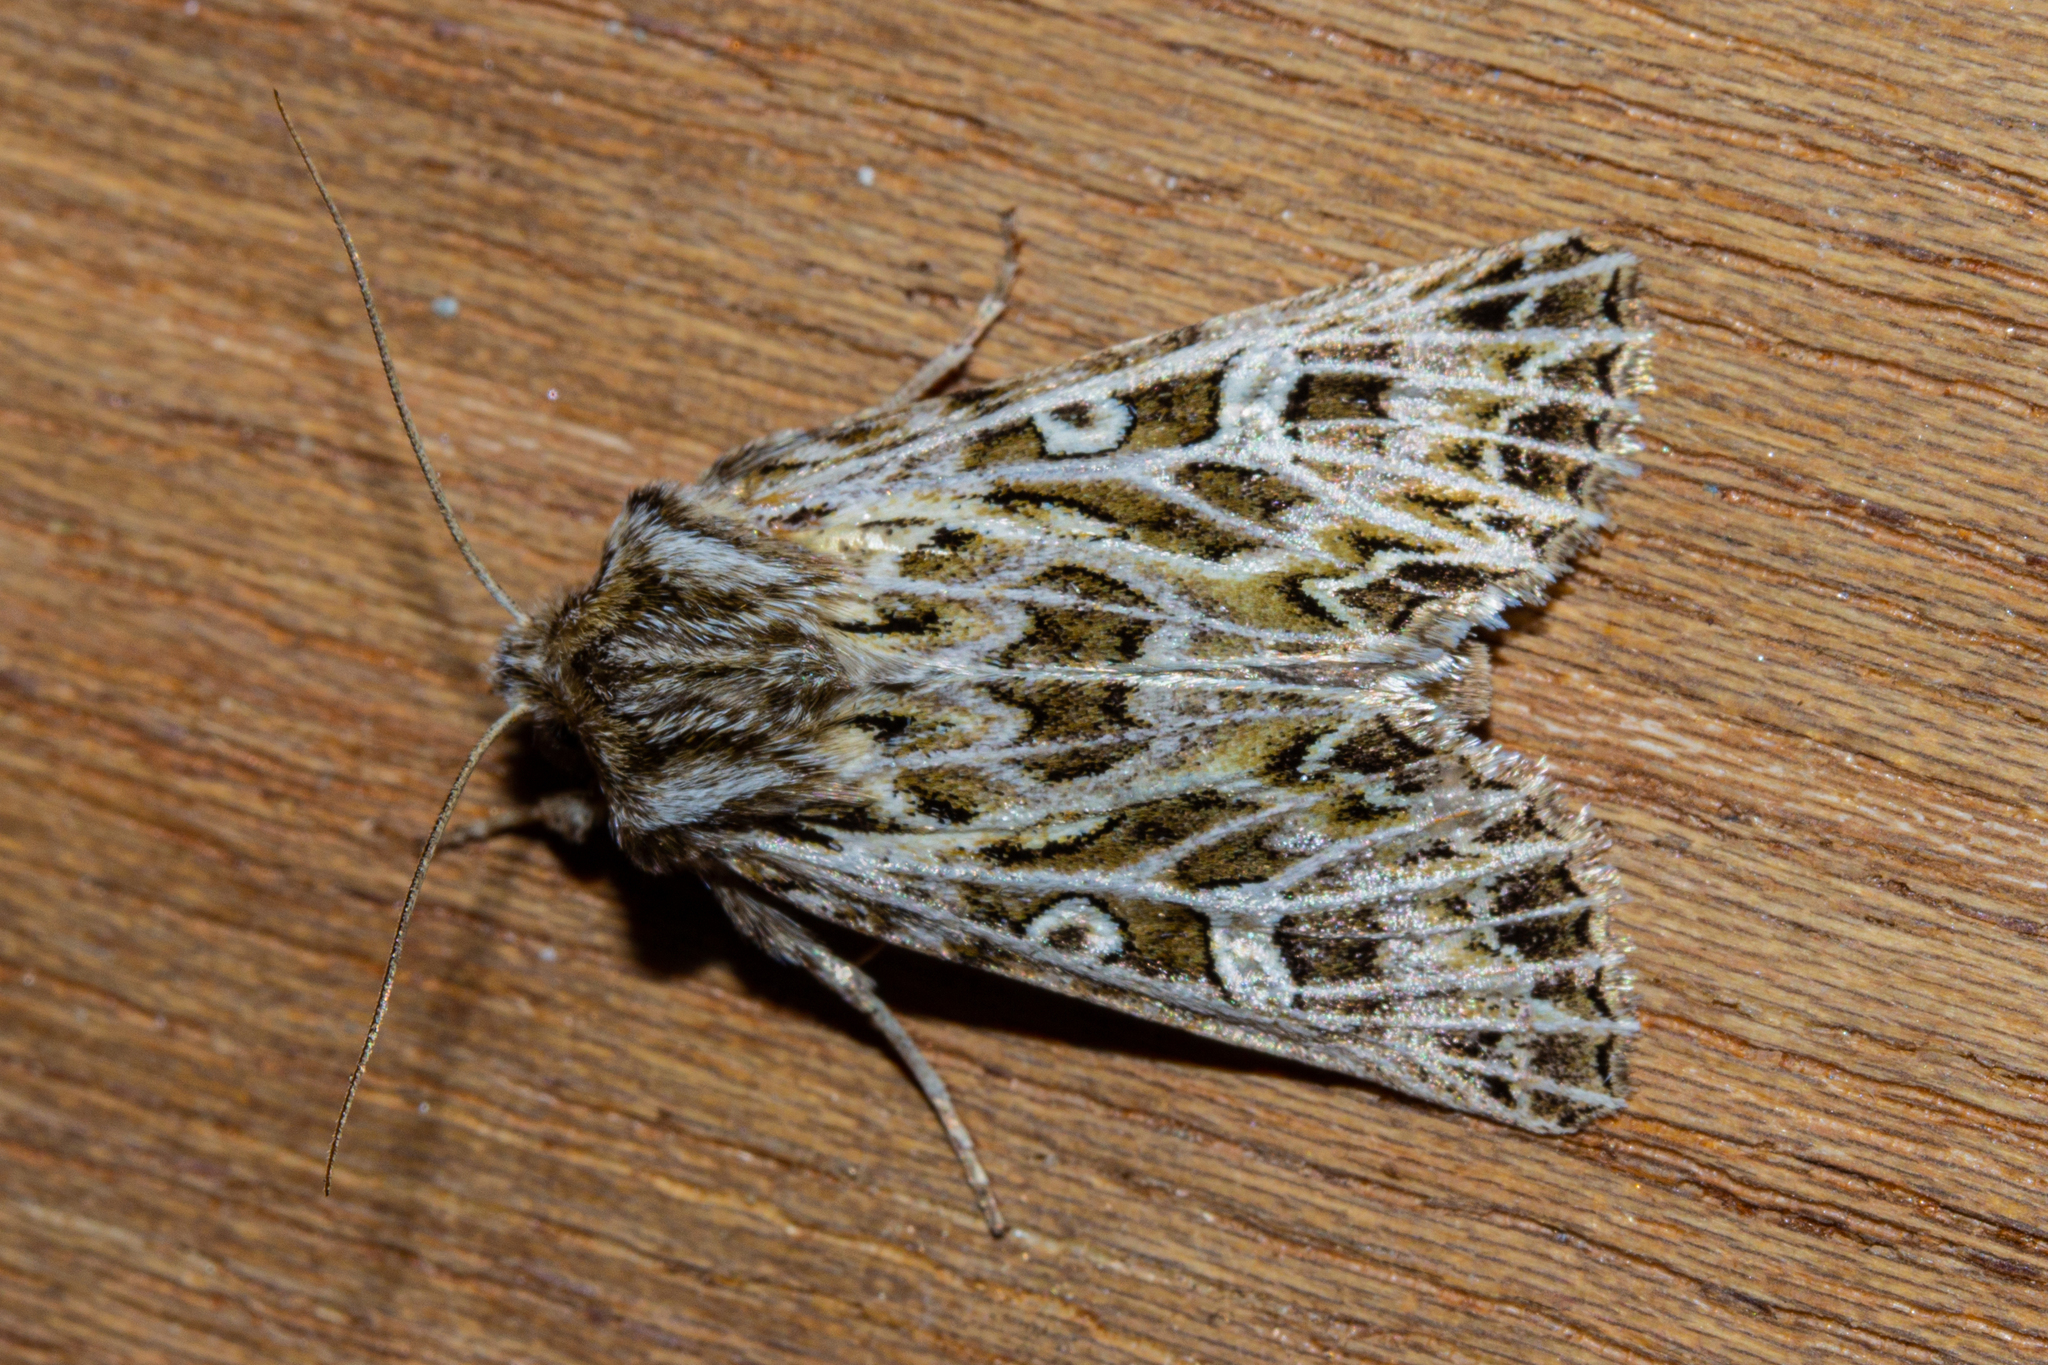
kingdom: Animalia
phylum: Arthropoda
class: Insecta
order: Lepidoptera
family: Noctuidae
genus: Ichneutica
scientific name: Ichneutica
